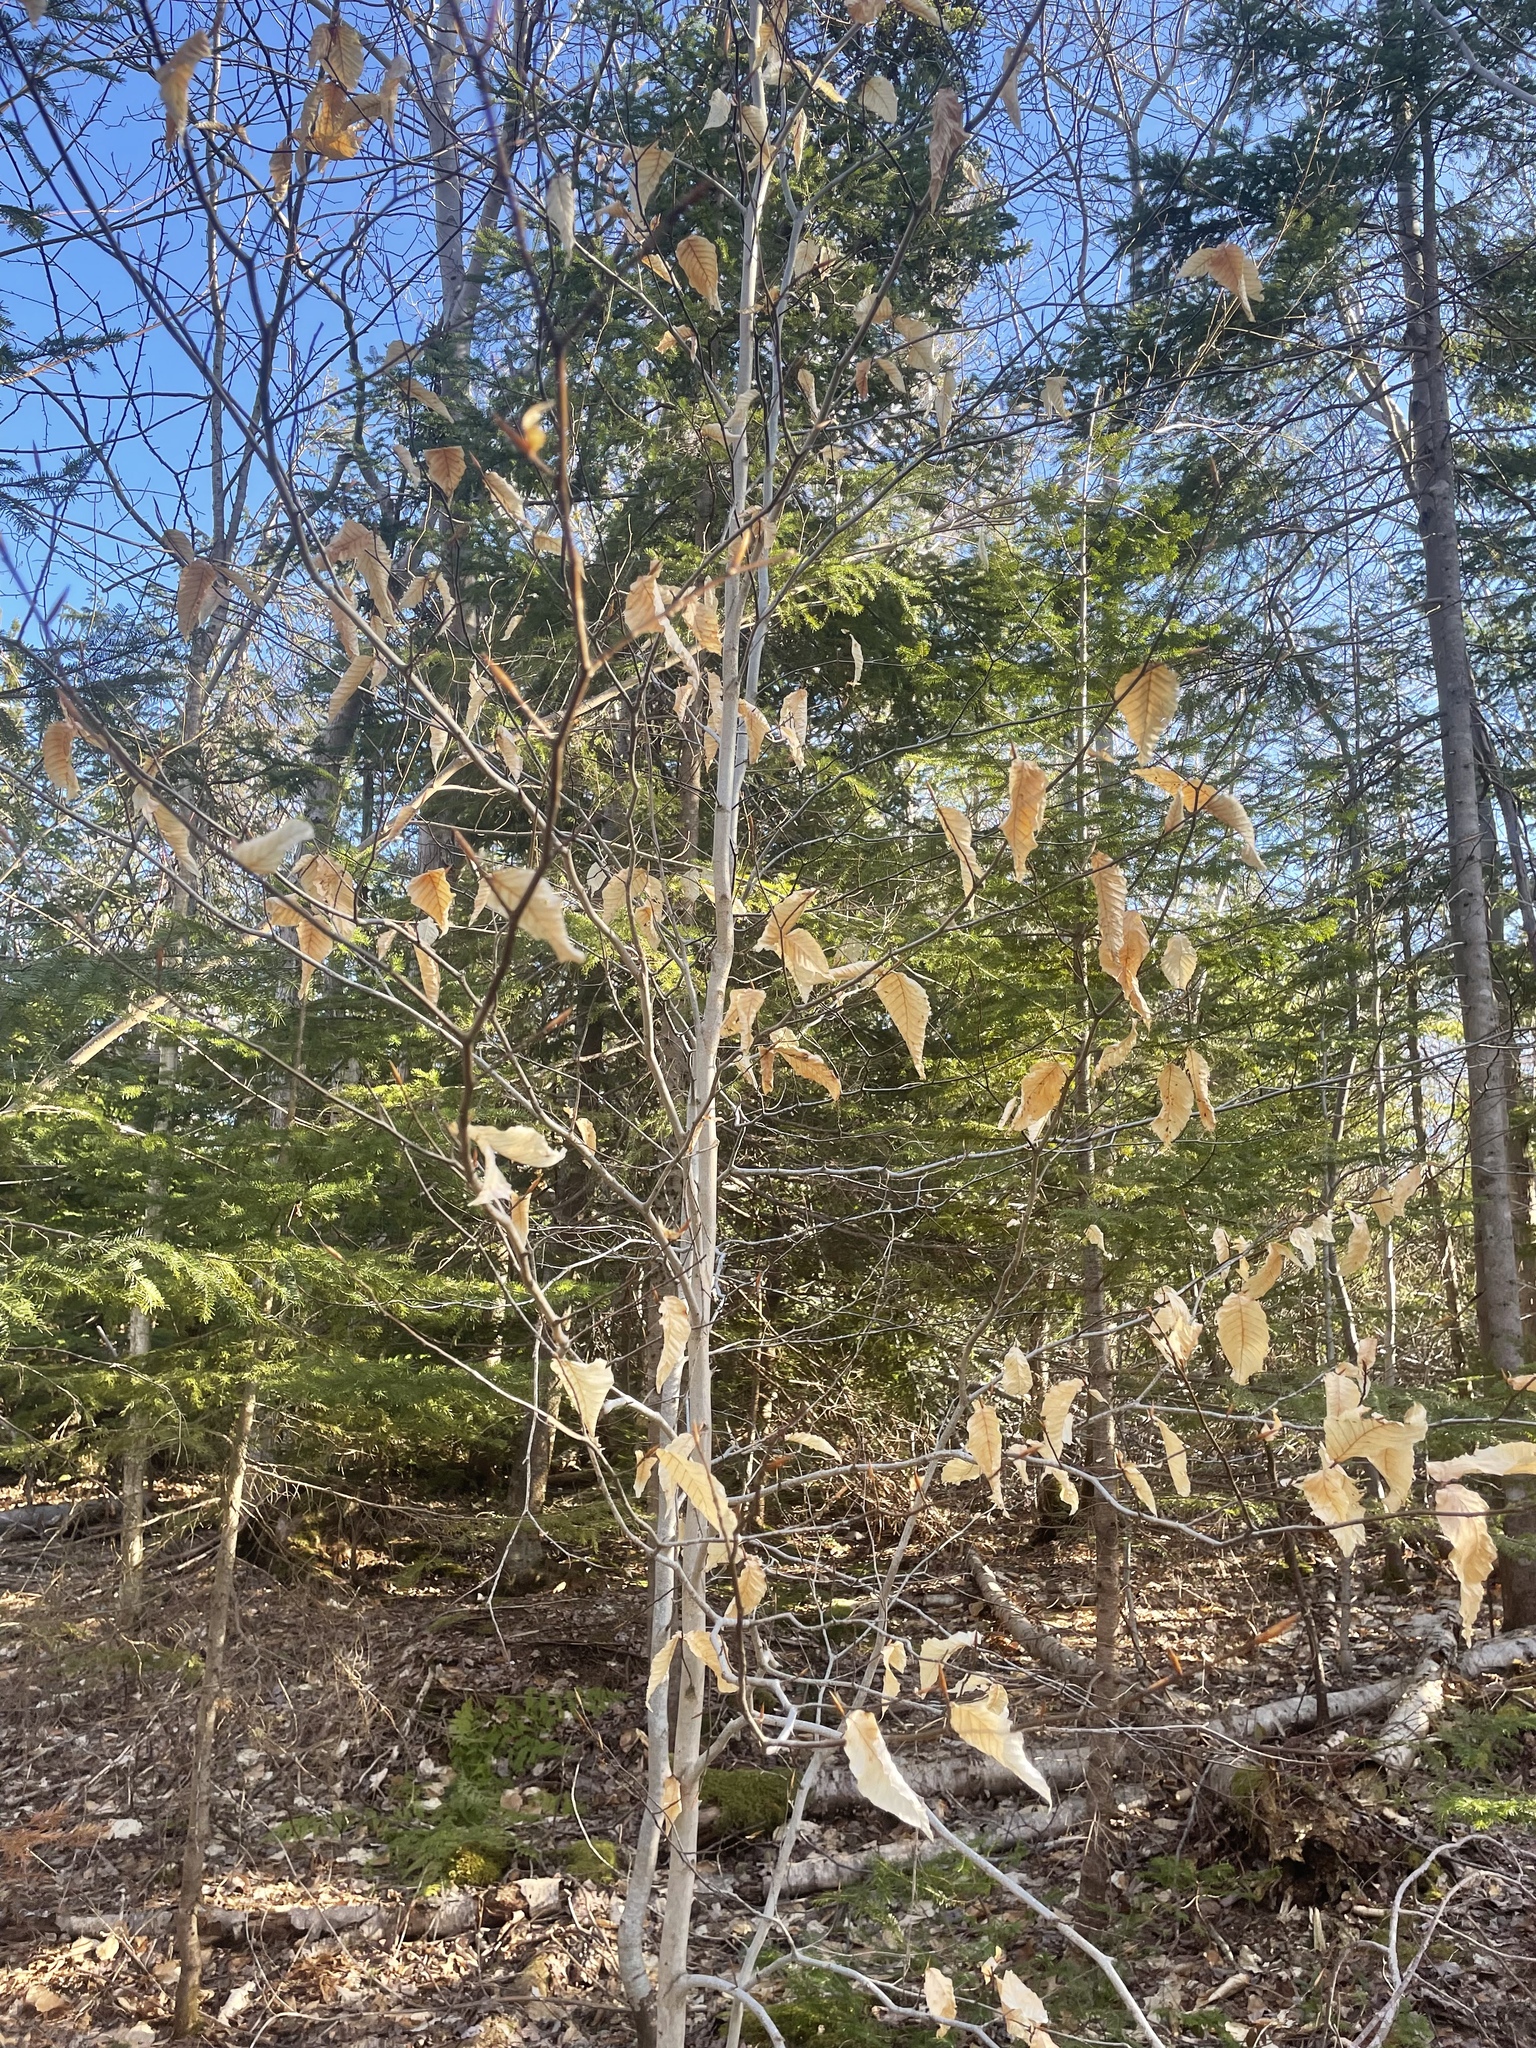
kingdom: Plantae
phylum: Tracheophyta
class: Magnoliopsida
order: Fagales
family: Fagaceae
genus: Fagus
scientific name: Fagus grandifolia
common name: American beech
